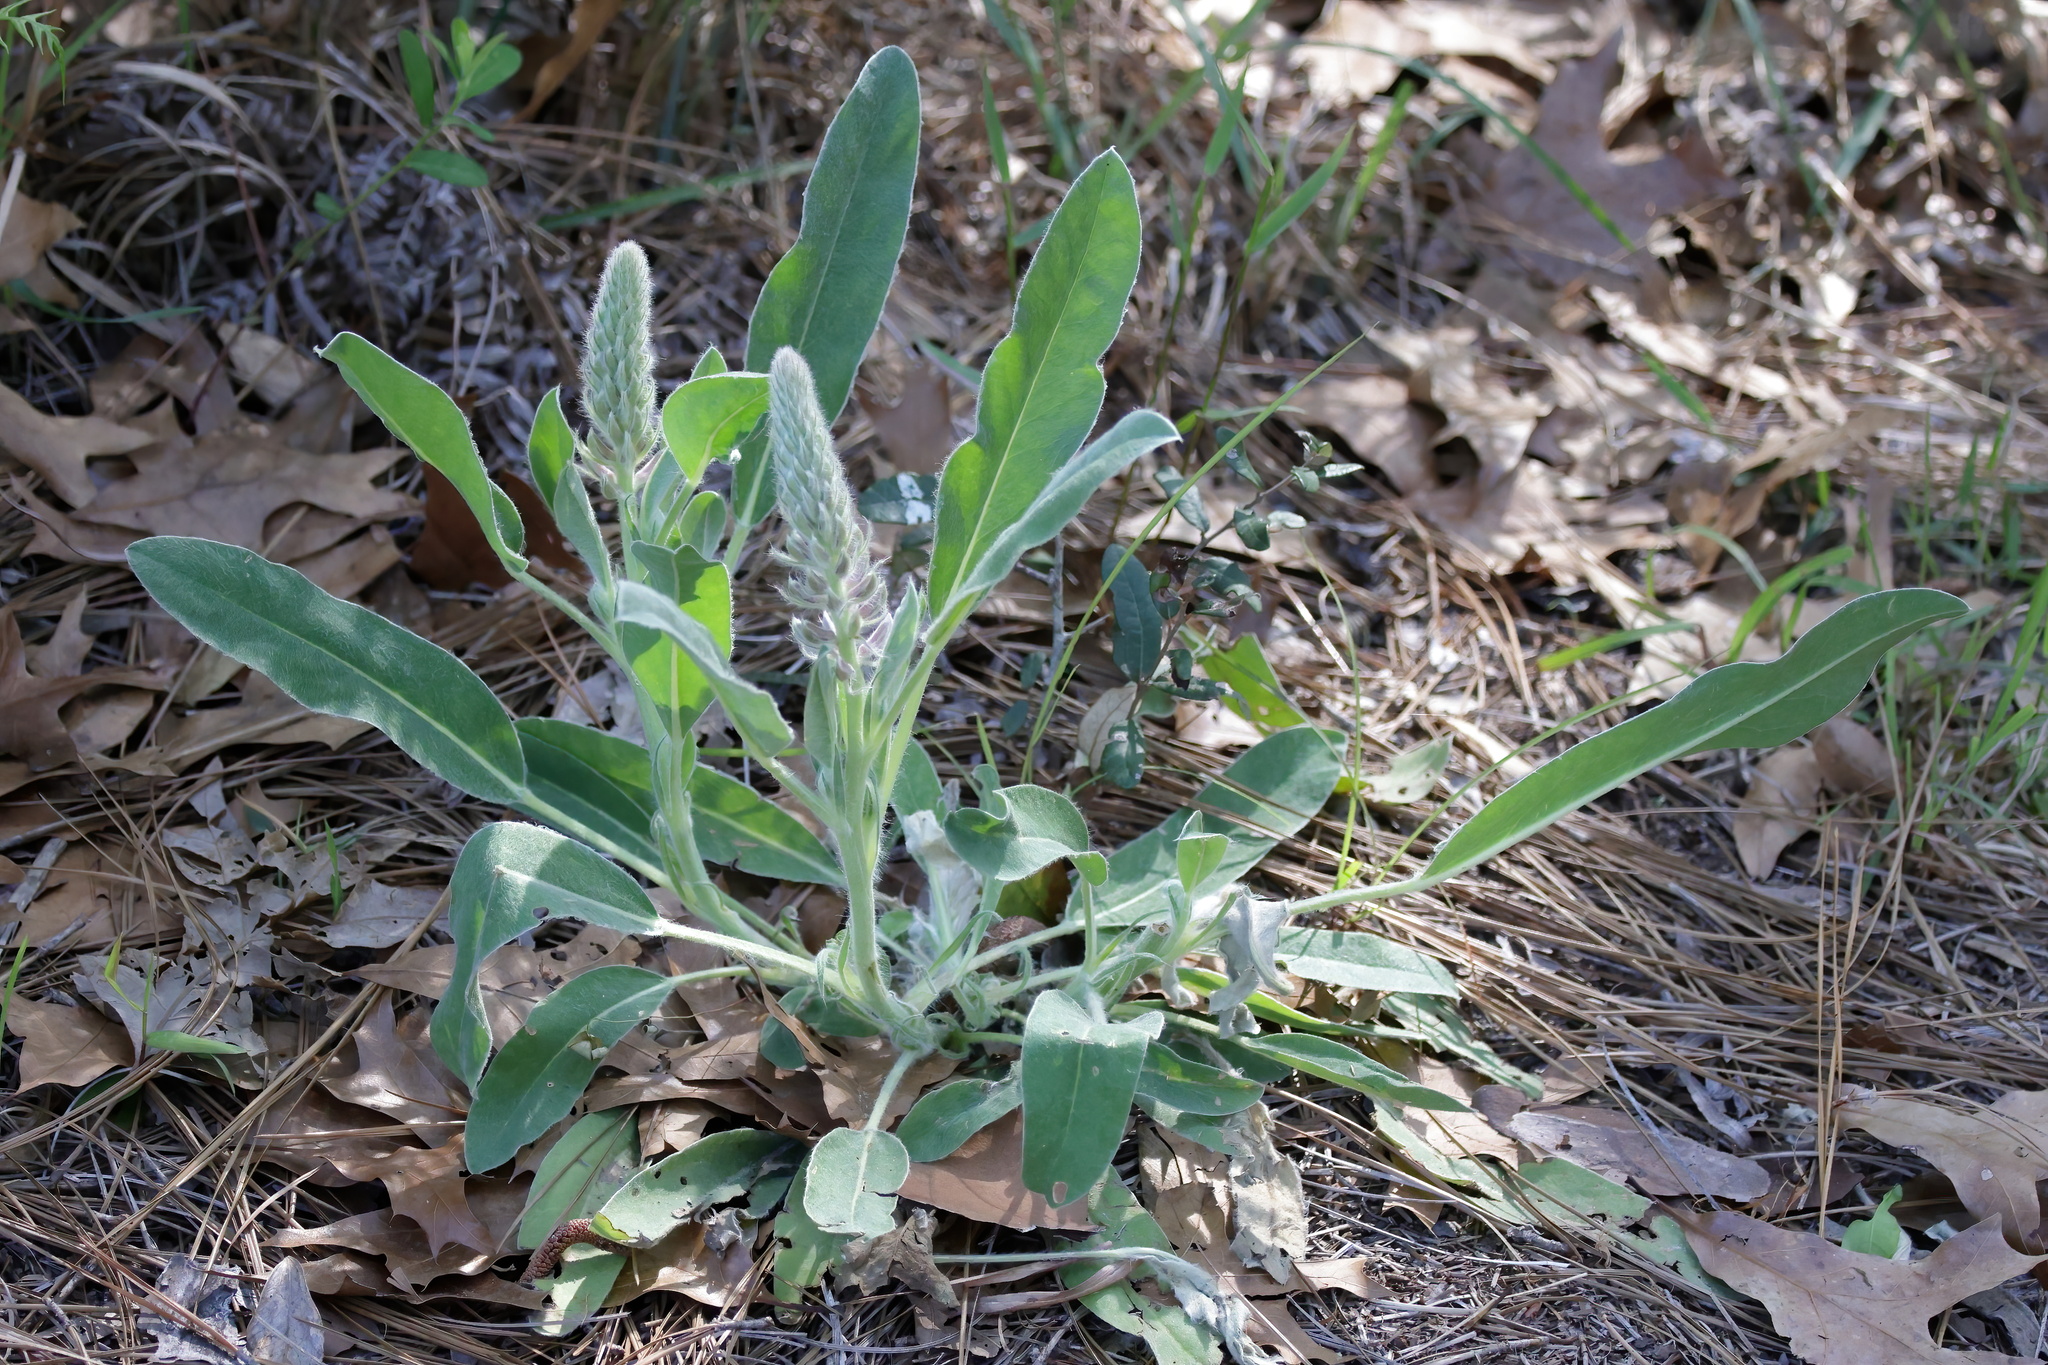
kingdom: Plantae
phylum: Tracheophyta
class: Magnoliopsida
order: Fabales
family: Fabaceae
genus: Lupinus
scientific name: Lupinus villosus
